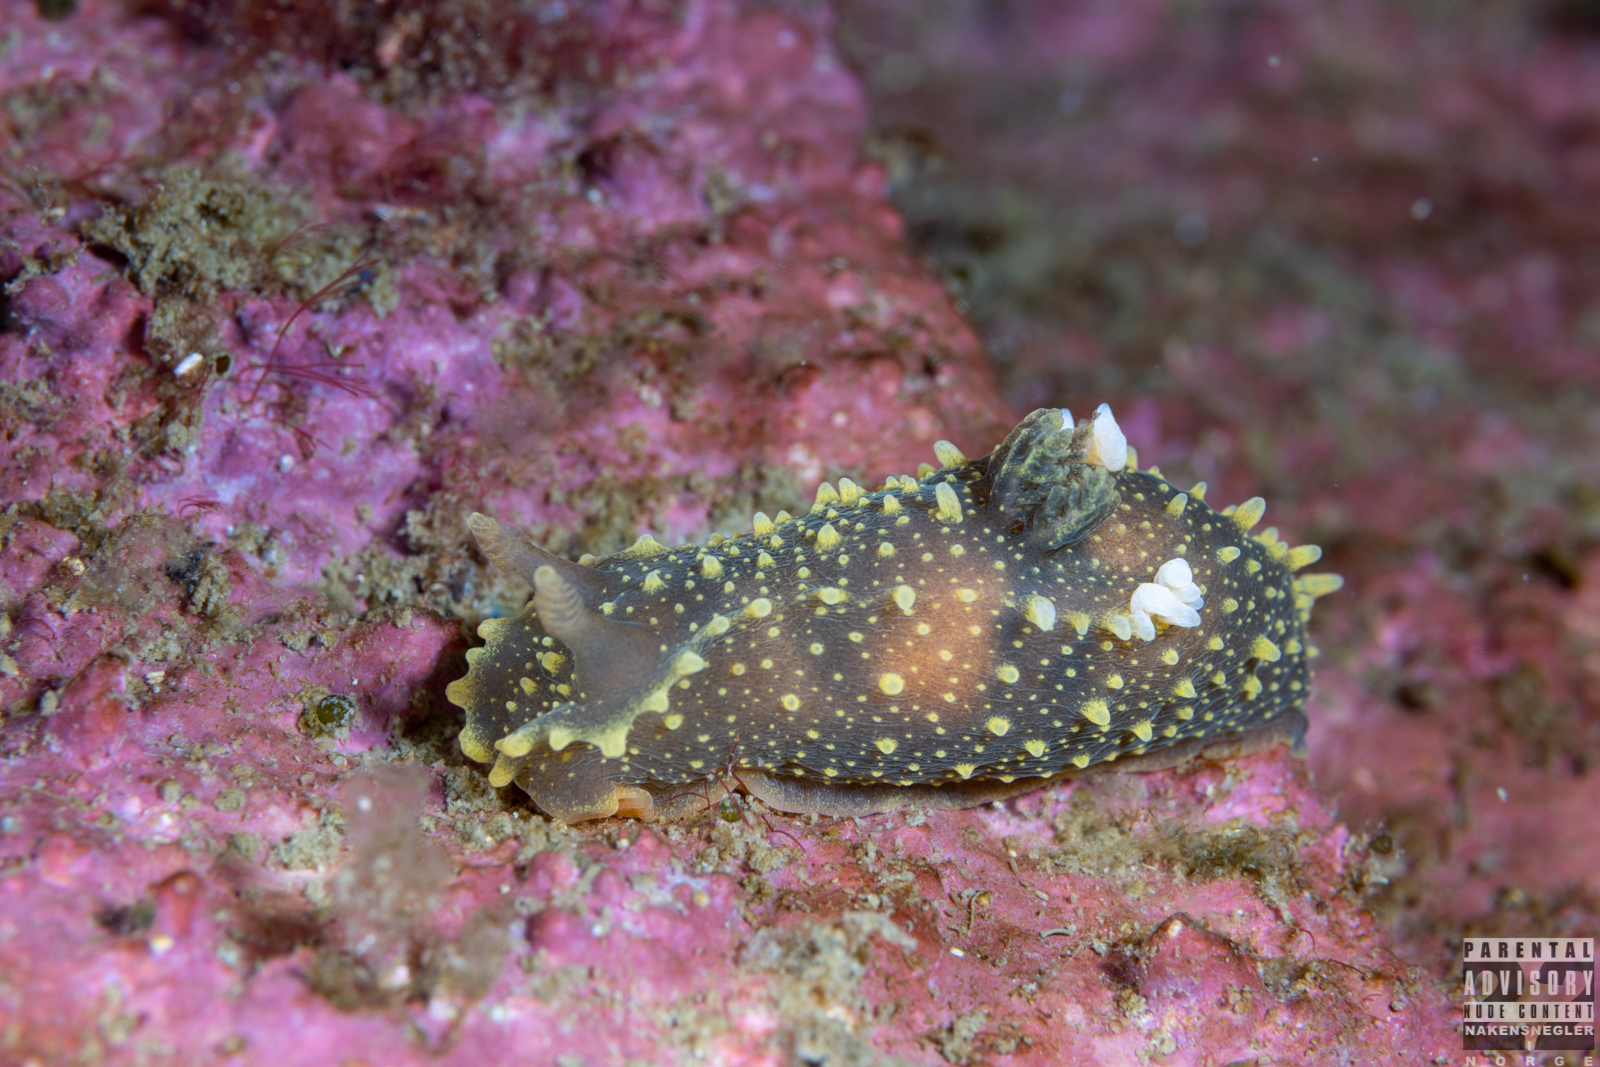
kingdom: Animalia
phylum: Mollusca
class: Gastropoda
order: Nudibranchia
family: Polyceridae
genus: Palio
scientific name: Palio dubia
